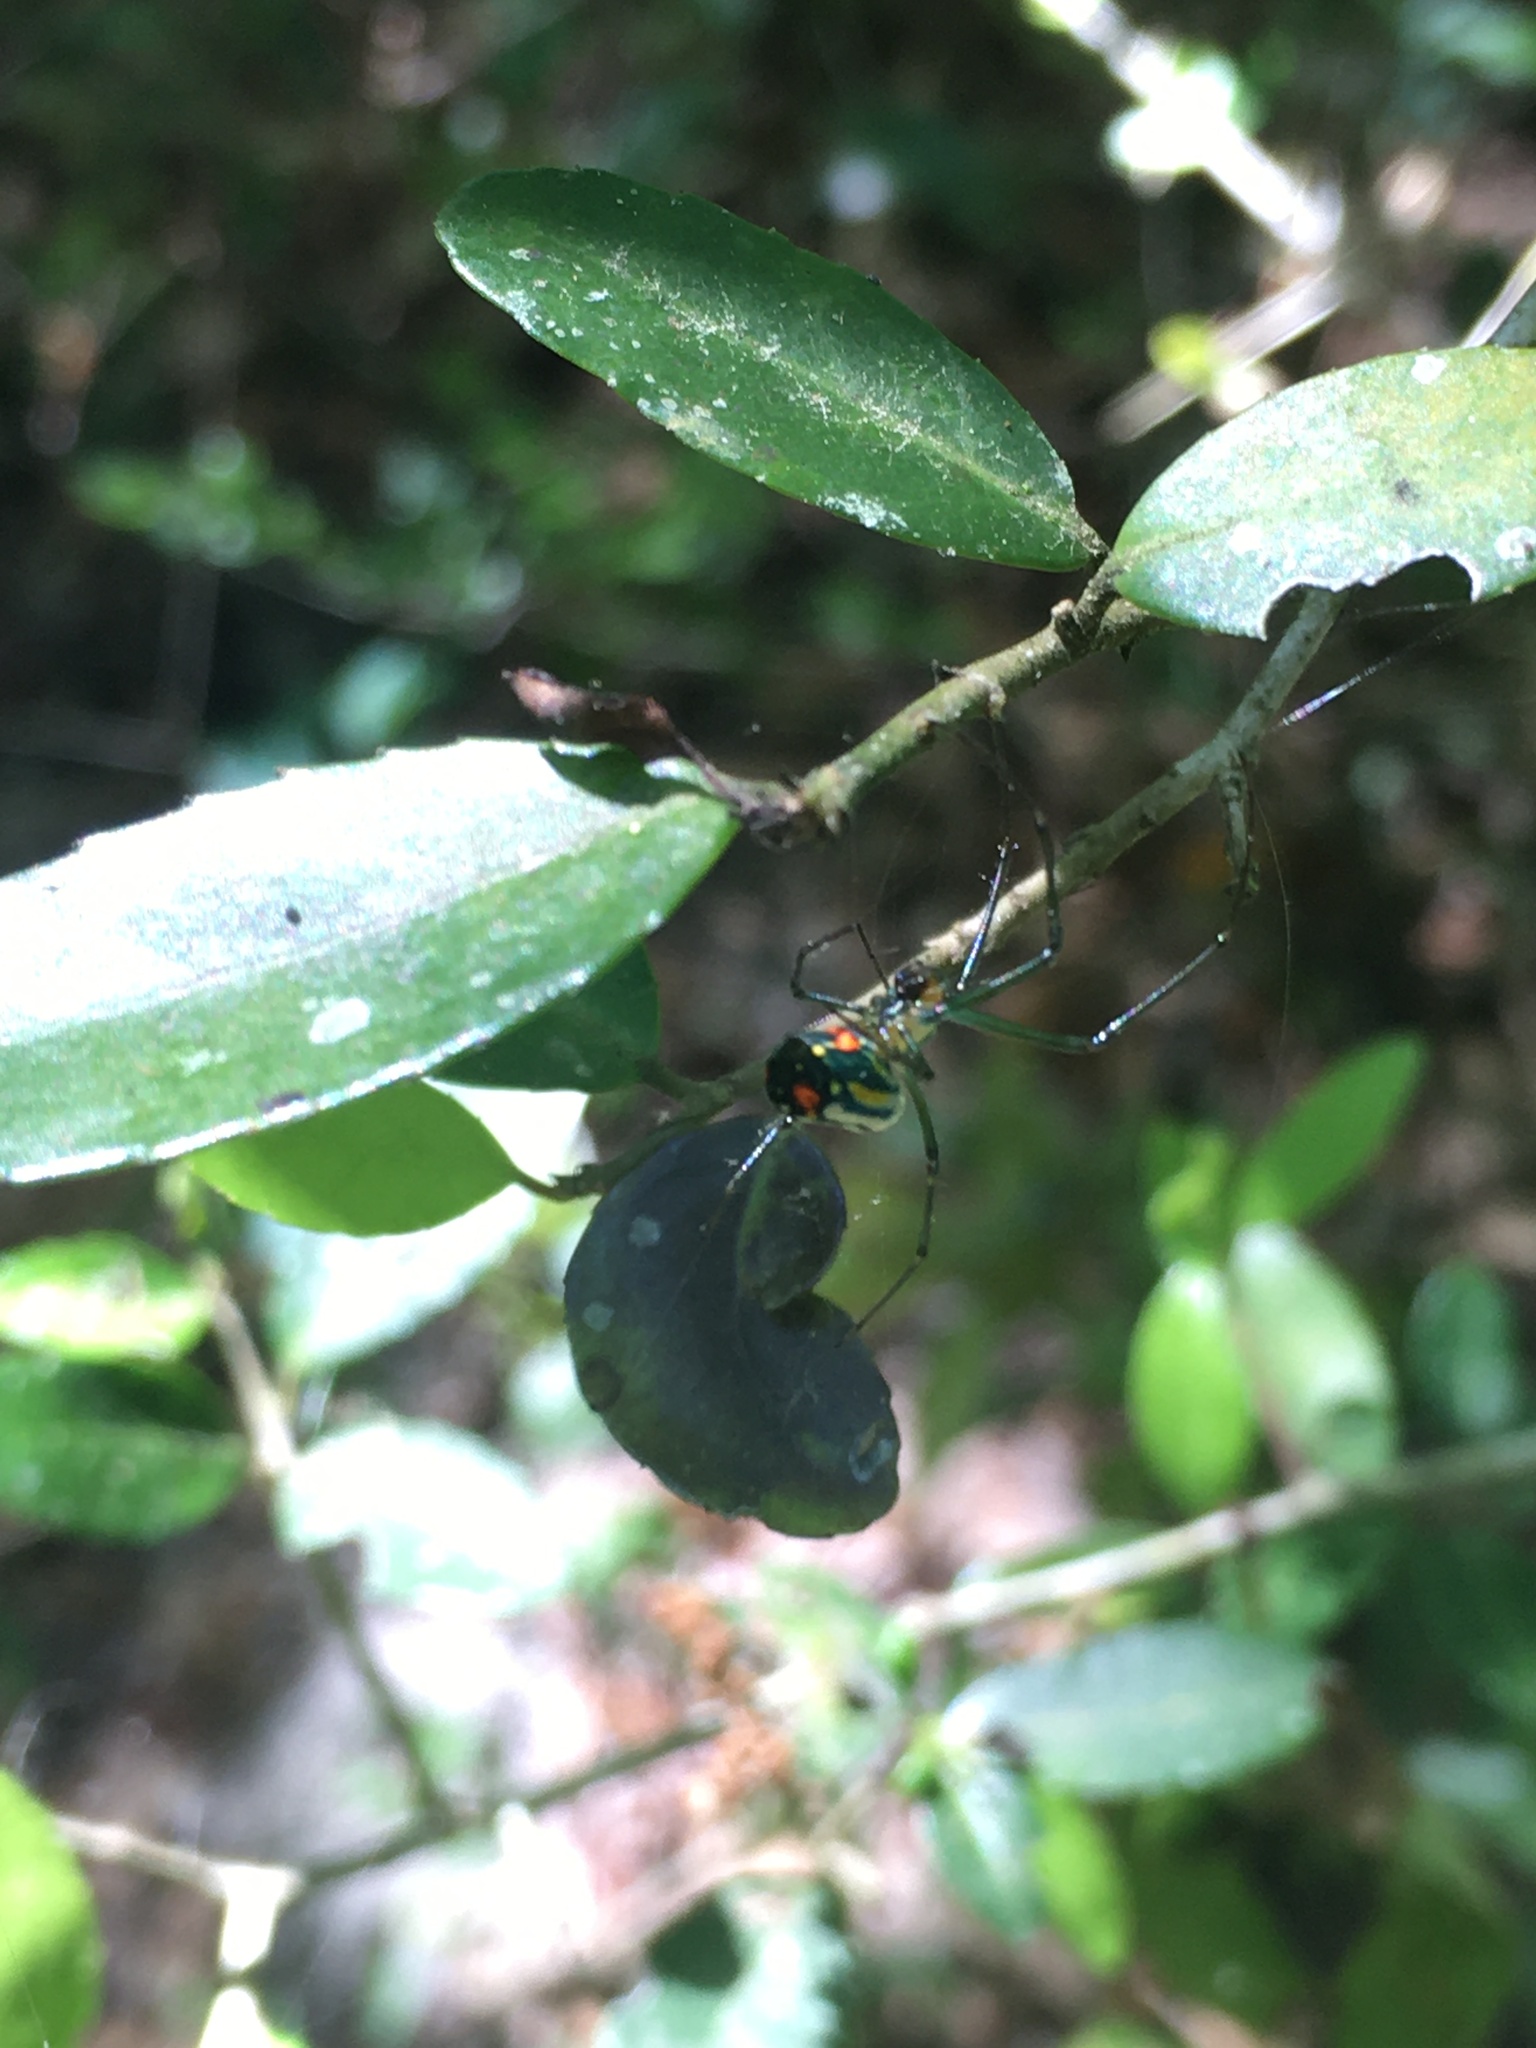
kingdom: Animalia
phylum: Arthropoda
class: Arachnida
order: Araneae
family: Tetragnathidae
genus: Leucauge
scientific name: Leucauge argyrobapta
